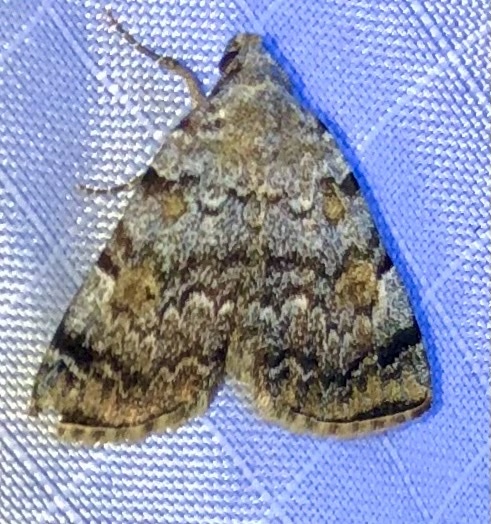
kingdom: Animalia
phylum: Arthropoda
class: Insecta
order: Lepidoptera
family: Erebidae
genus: Idia
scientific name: Idia americalis
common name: American idia moth
